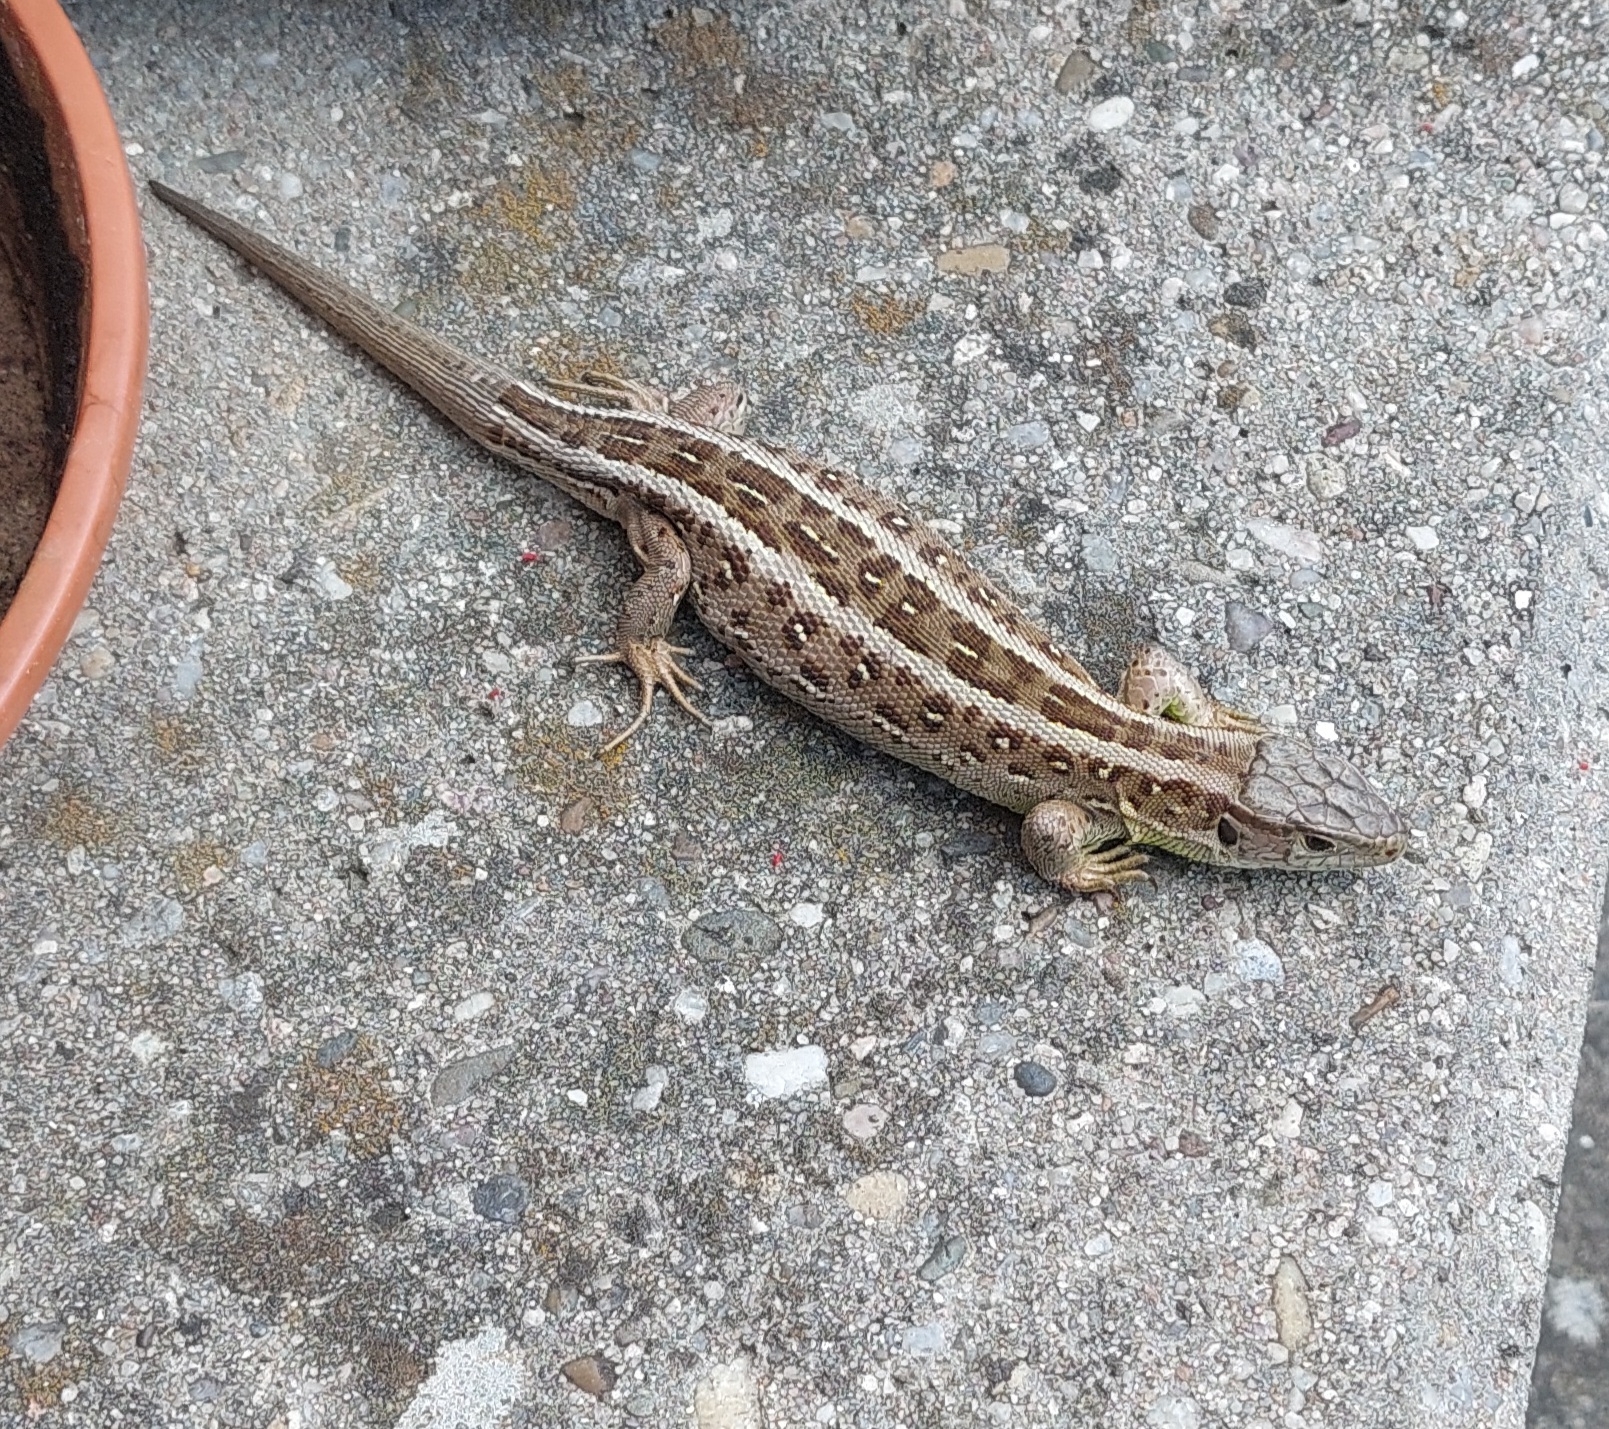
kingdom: Animalia
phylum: Chordata
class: Squamata
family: Lacertidae
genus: Lacerta
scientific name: Lacerta agilis
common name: Sand lizard
